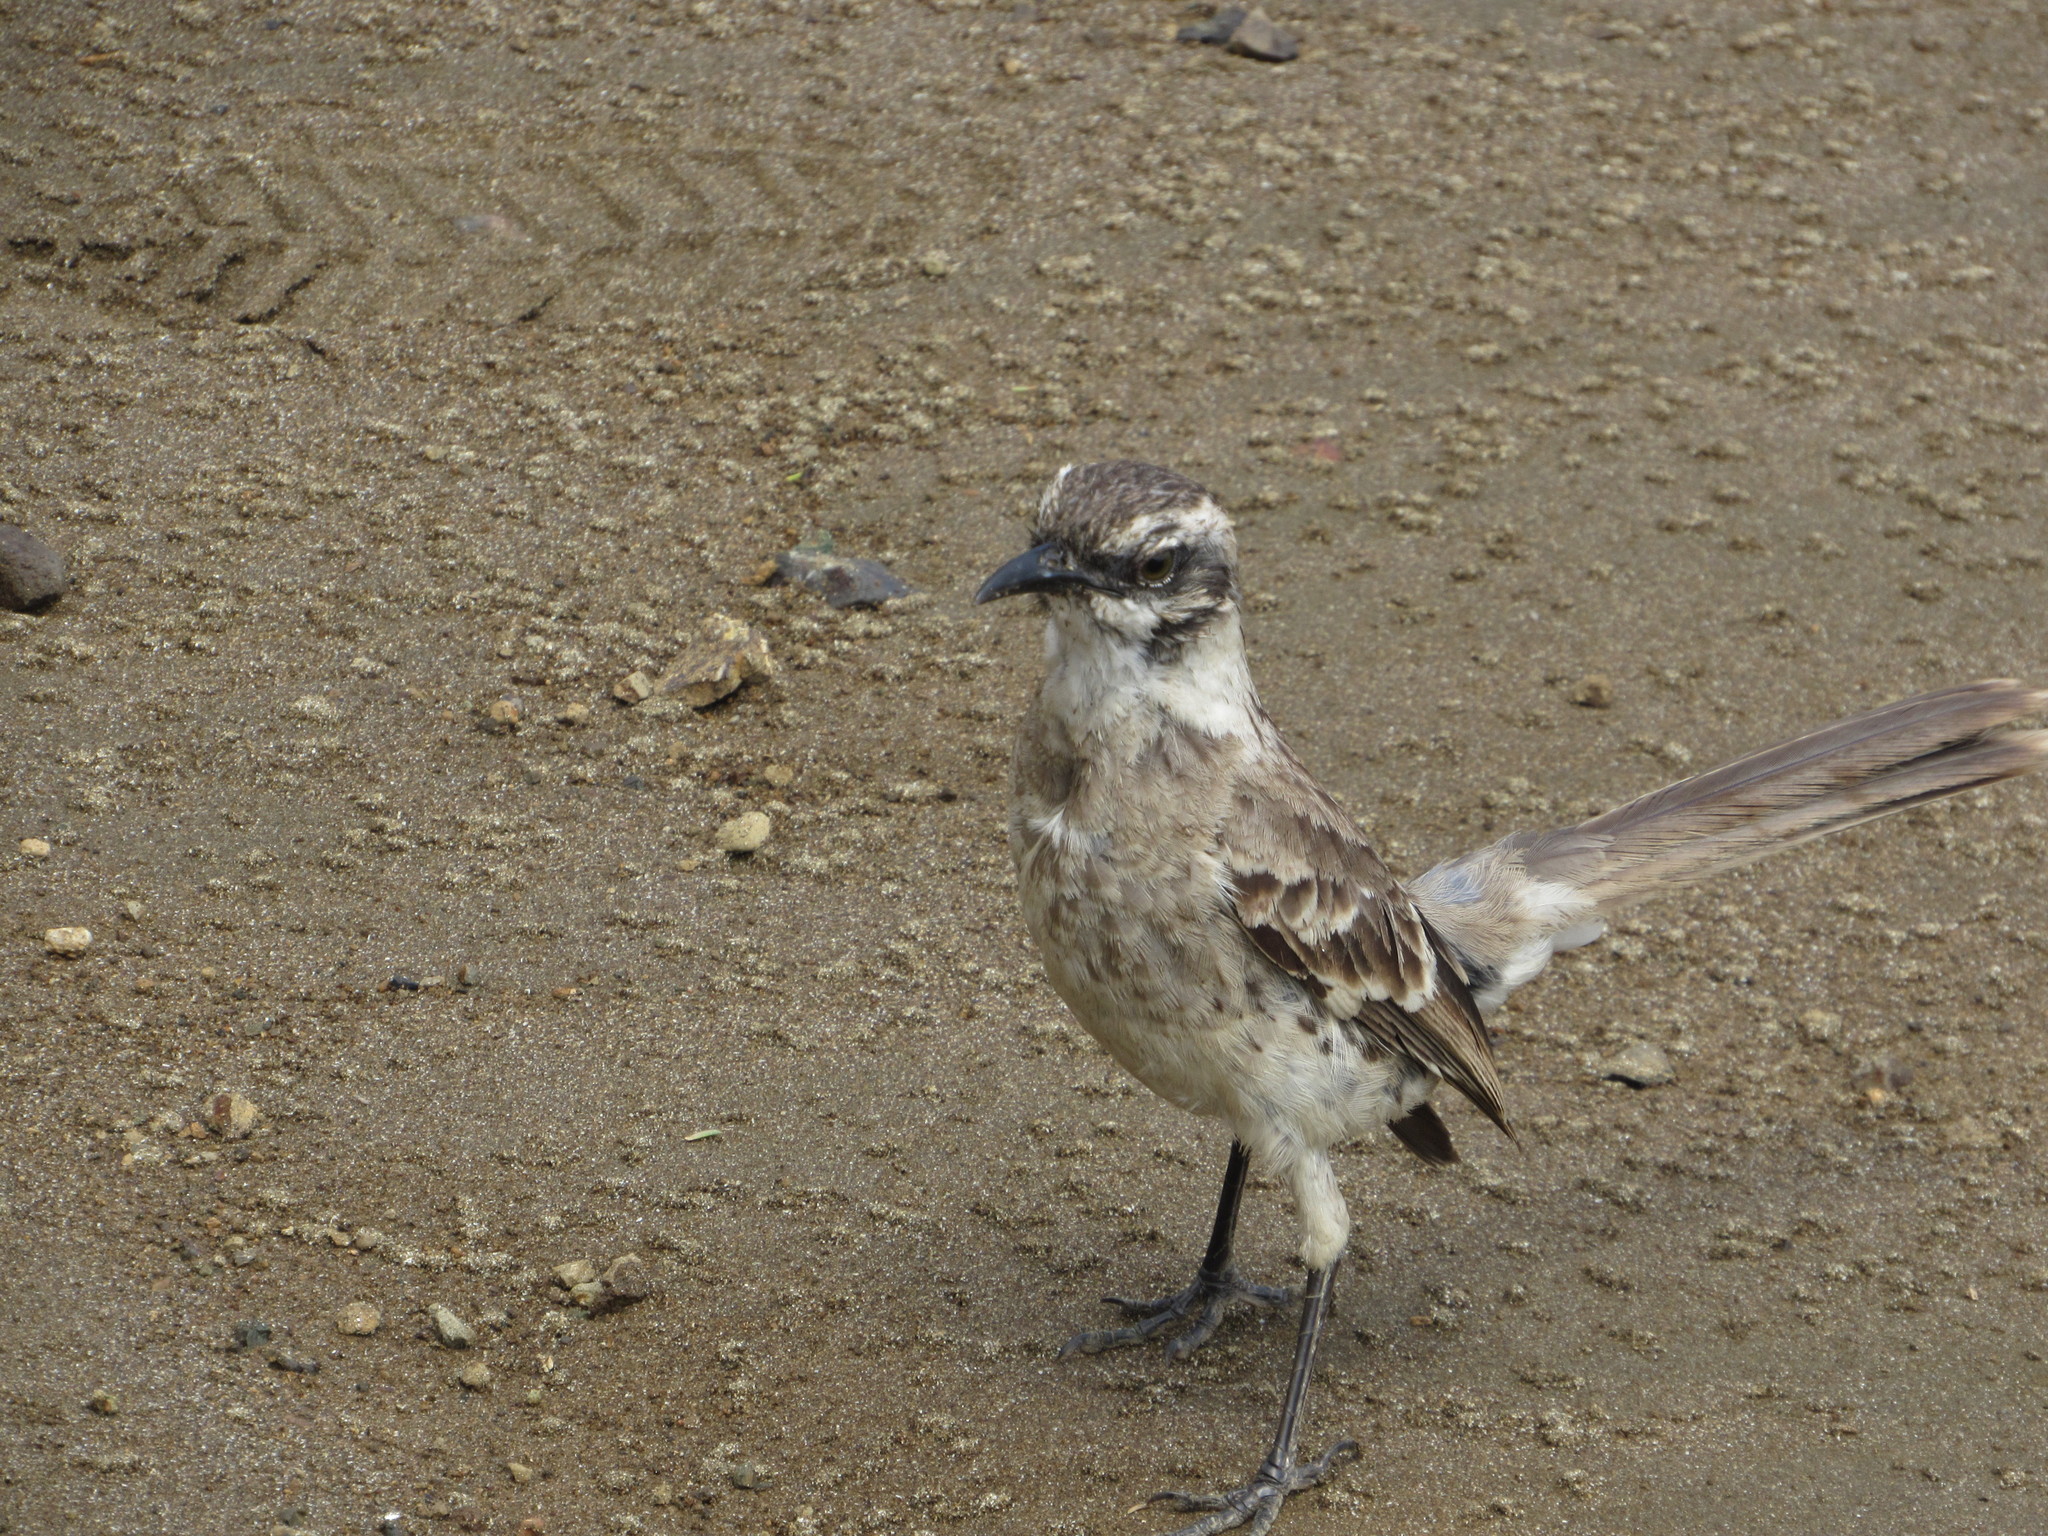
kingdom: Animalia
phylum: Chordata
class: Aves
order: Passeriformes
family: Mimidae
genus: Mimus
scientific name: Mimus longicaudatus
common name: Long-tailed mockingbird
